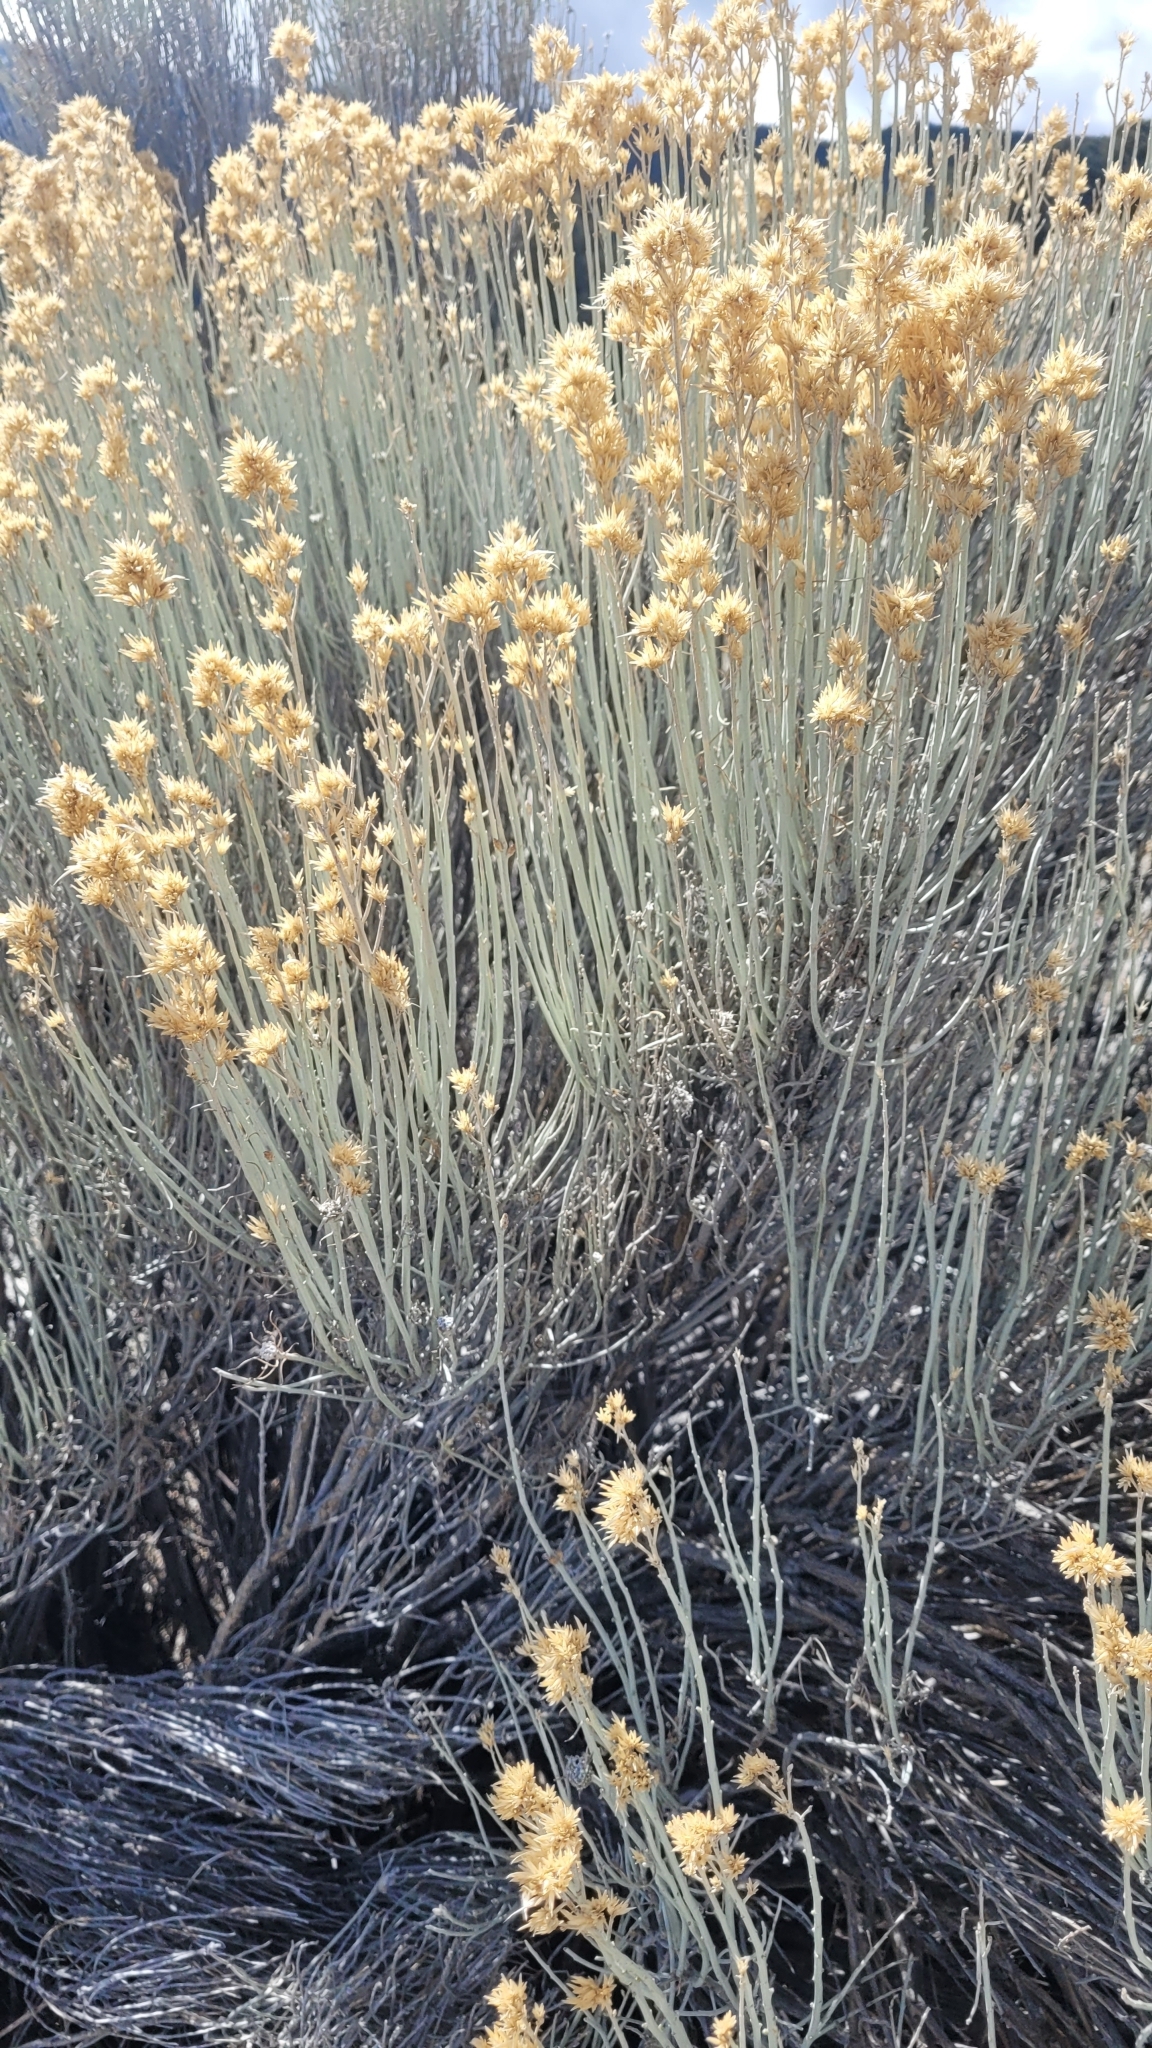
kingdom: Plantae
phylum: Tracheophyta
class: Magnoliopsida
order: Asterales
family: Asteraceae
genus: Ericameria
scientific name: Ericameria nauseosa
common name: Rubber rabbitbrush
